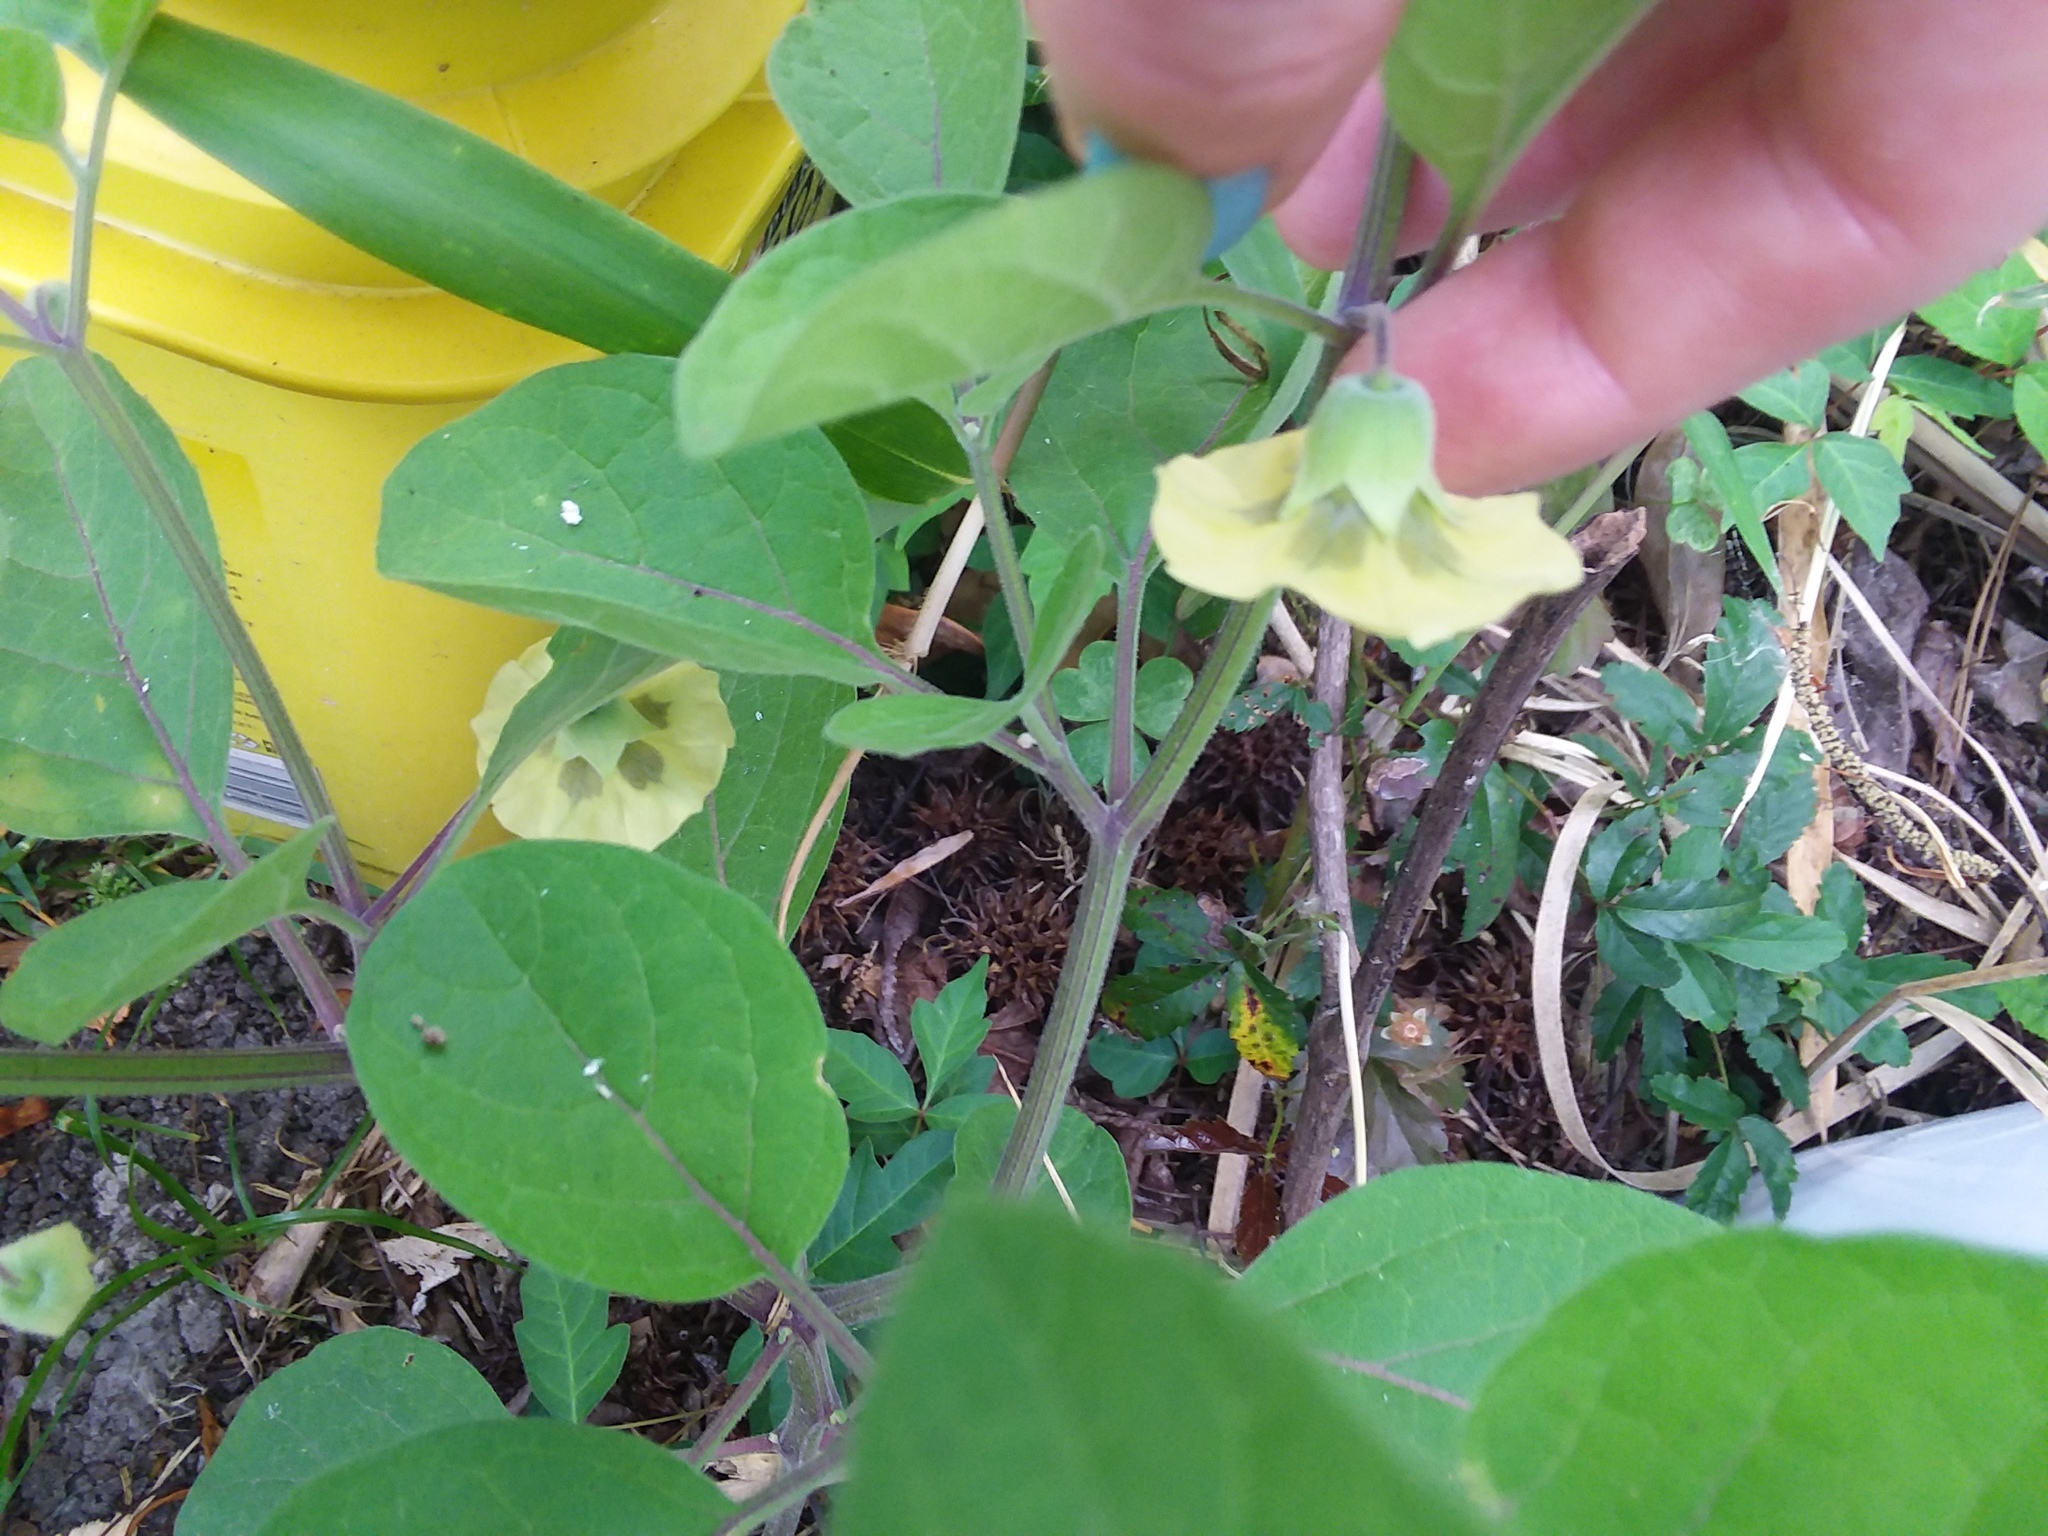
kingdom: Plantae
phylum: Tracheophyta
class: Magnoliopsida
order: Solanales
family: Solanaceae
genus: Physalis
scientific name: Physalis walteri
